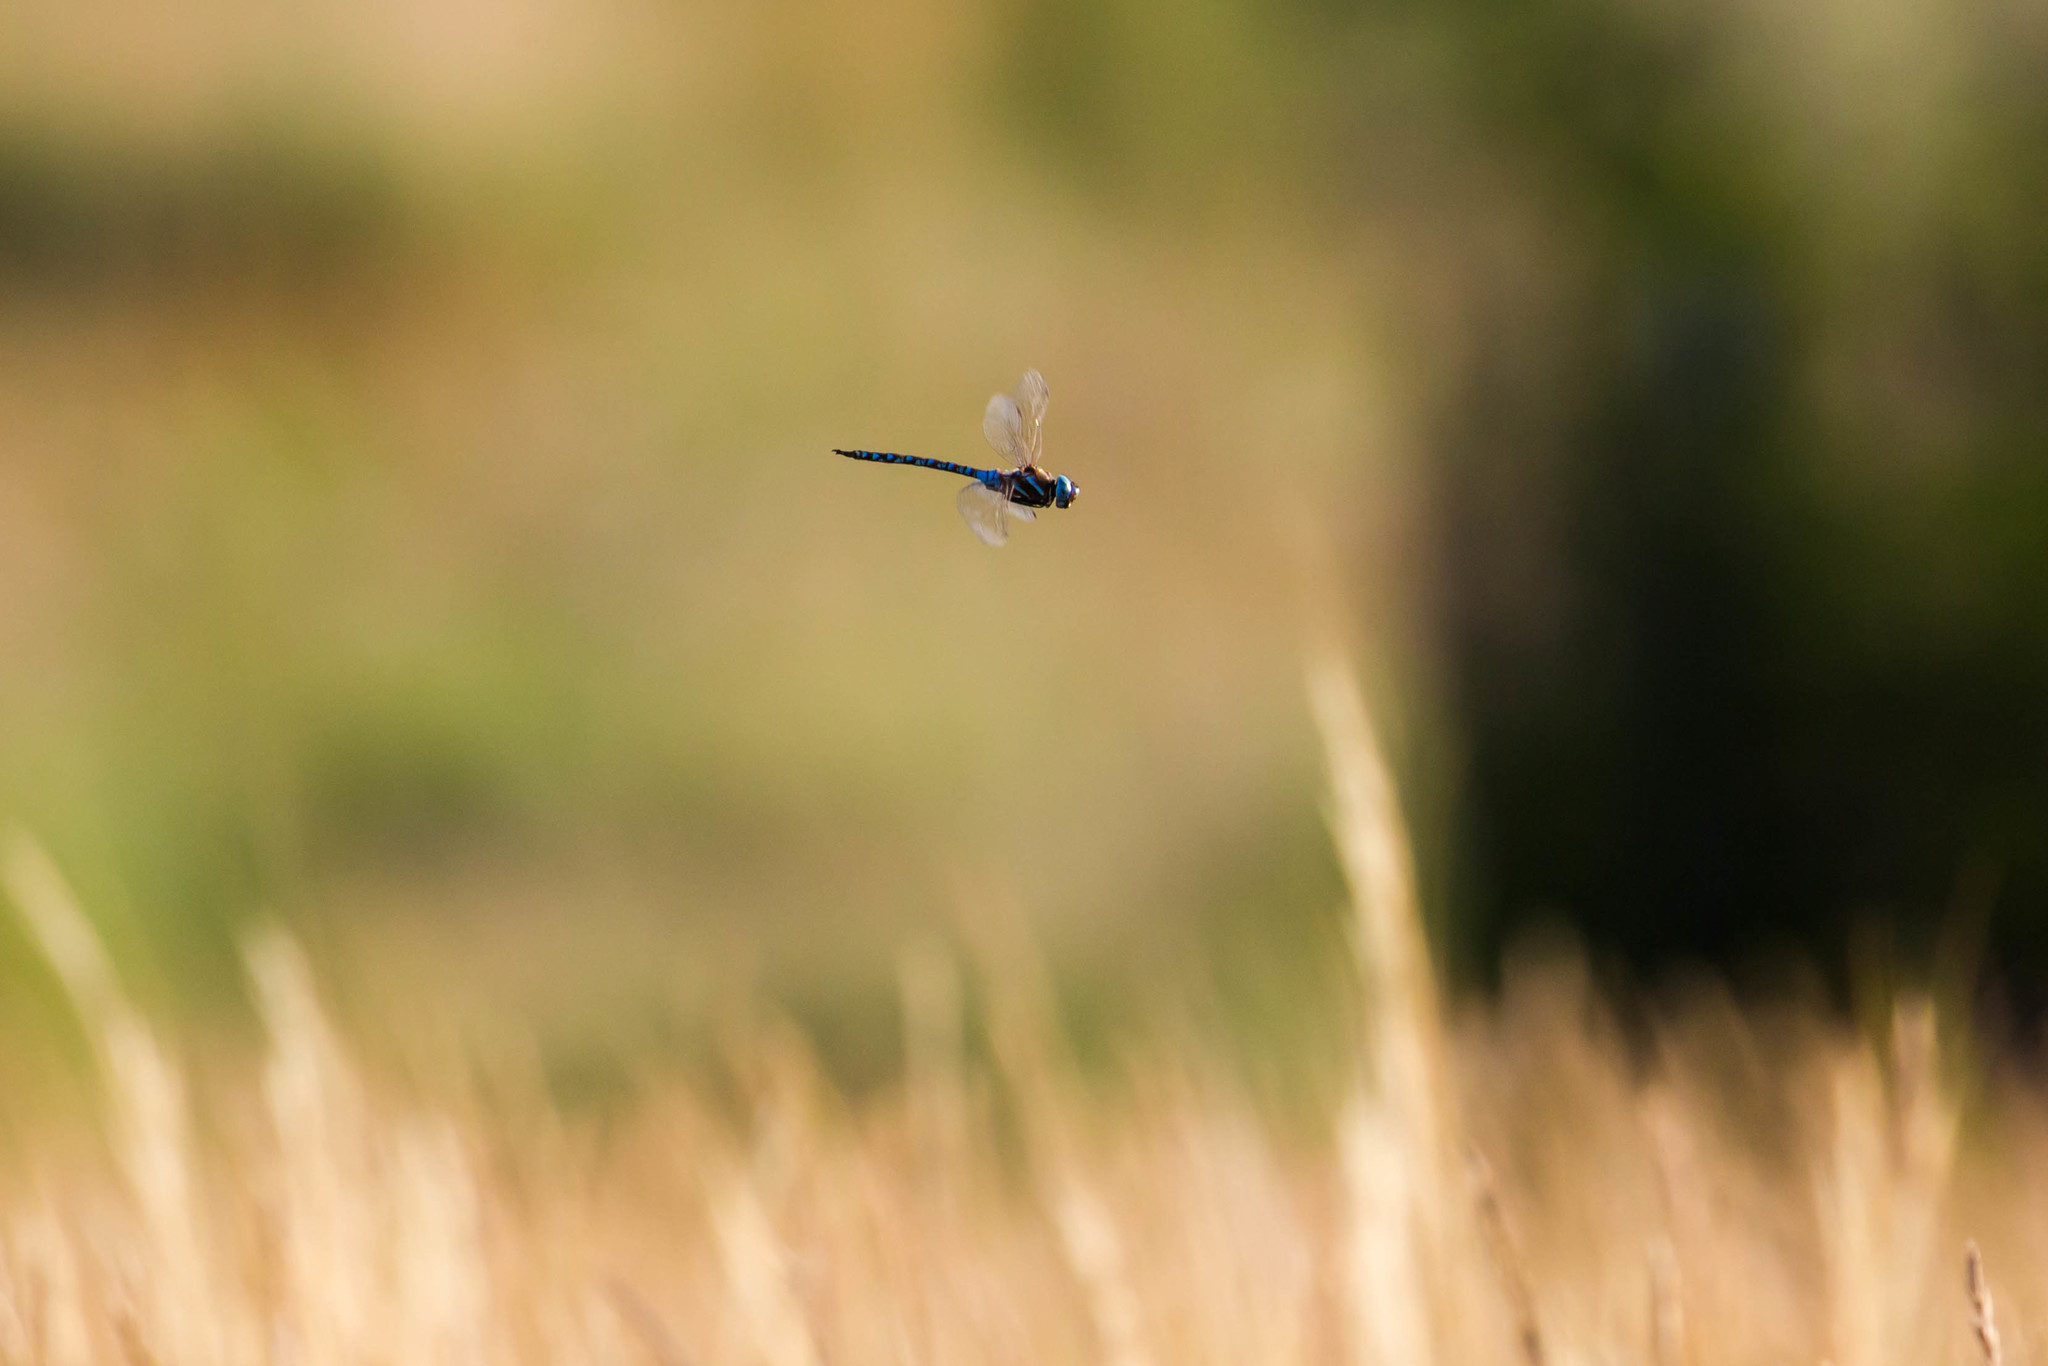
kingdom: Animalia
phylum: Arthropoda
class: Insecta
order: Odonata
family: Aeshnidae
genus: Rhionaeschna
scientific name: Rhionaeschna multicolor
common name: Blue-eyed darner
